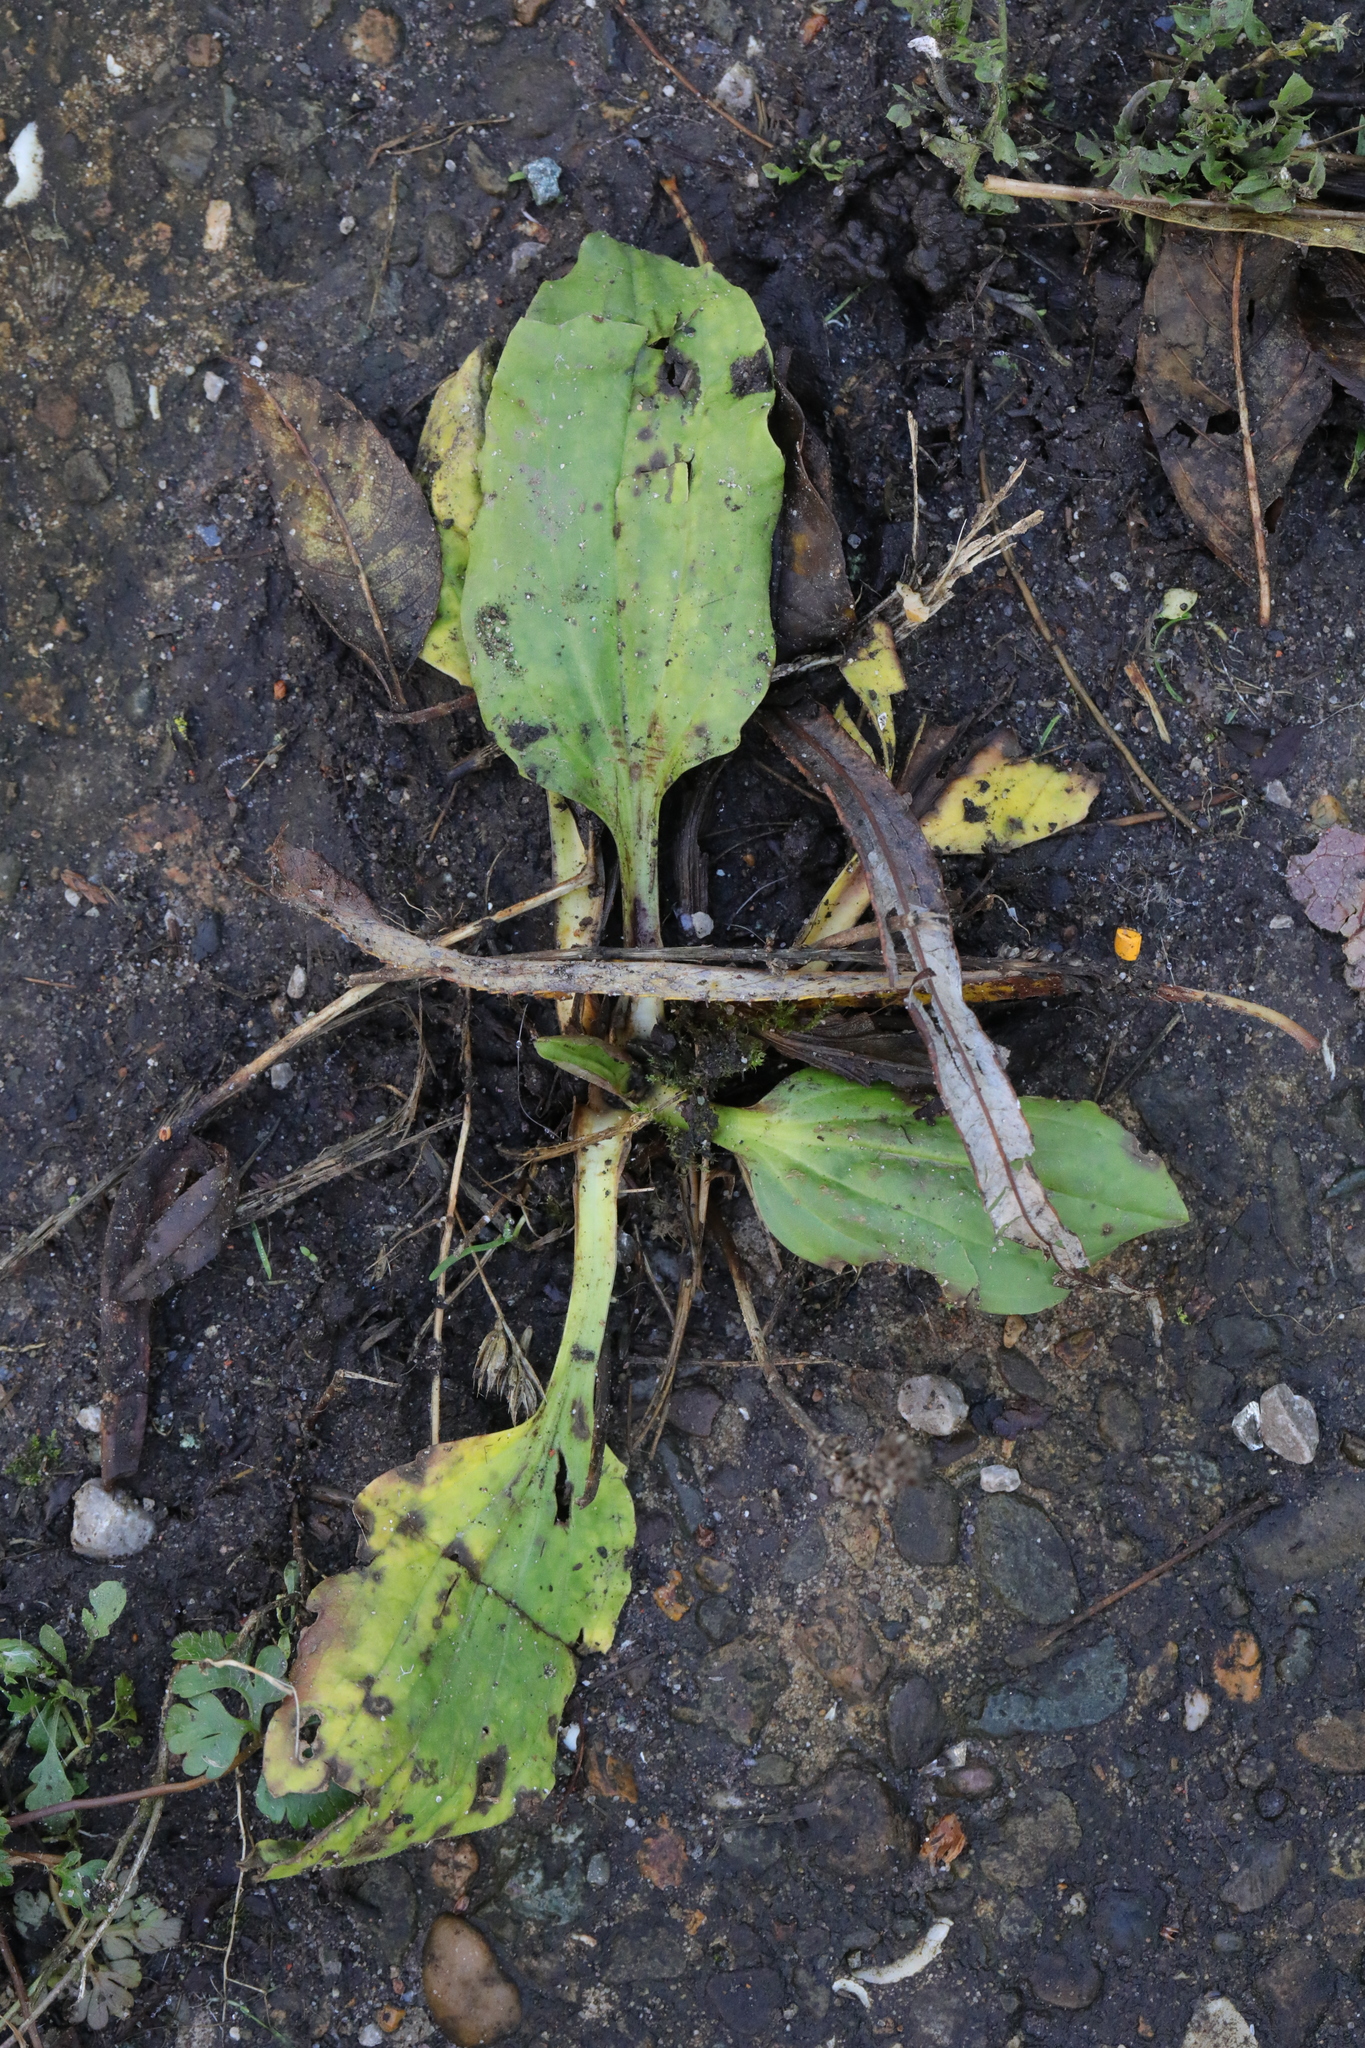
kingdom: Plantae
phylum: Tracheophyta
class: Magnoliopsida
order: Lamiales
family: Plantaginaceae
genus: Plantago
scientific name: Plantago major
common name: Common plantain
